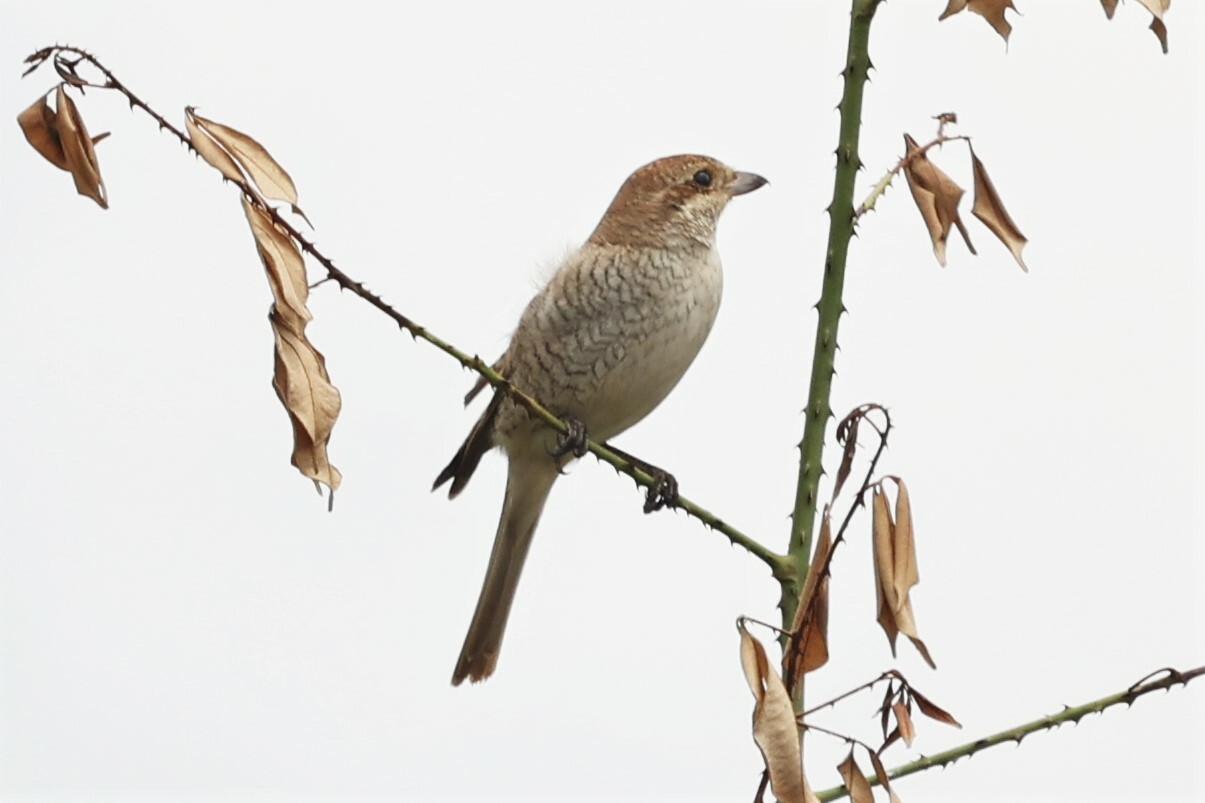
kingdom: Animalia
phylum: Chordata
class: Aves
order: Passeriformes
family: Laniidae
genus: Lanius
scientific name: Lanius collurio
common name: Red-backed shrike
